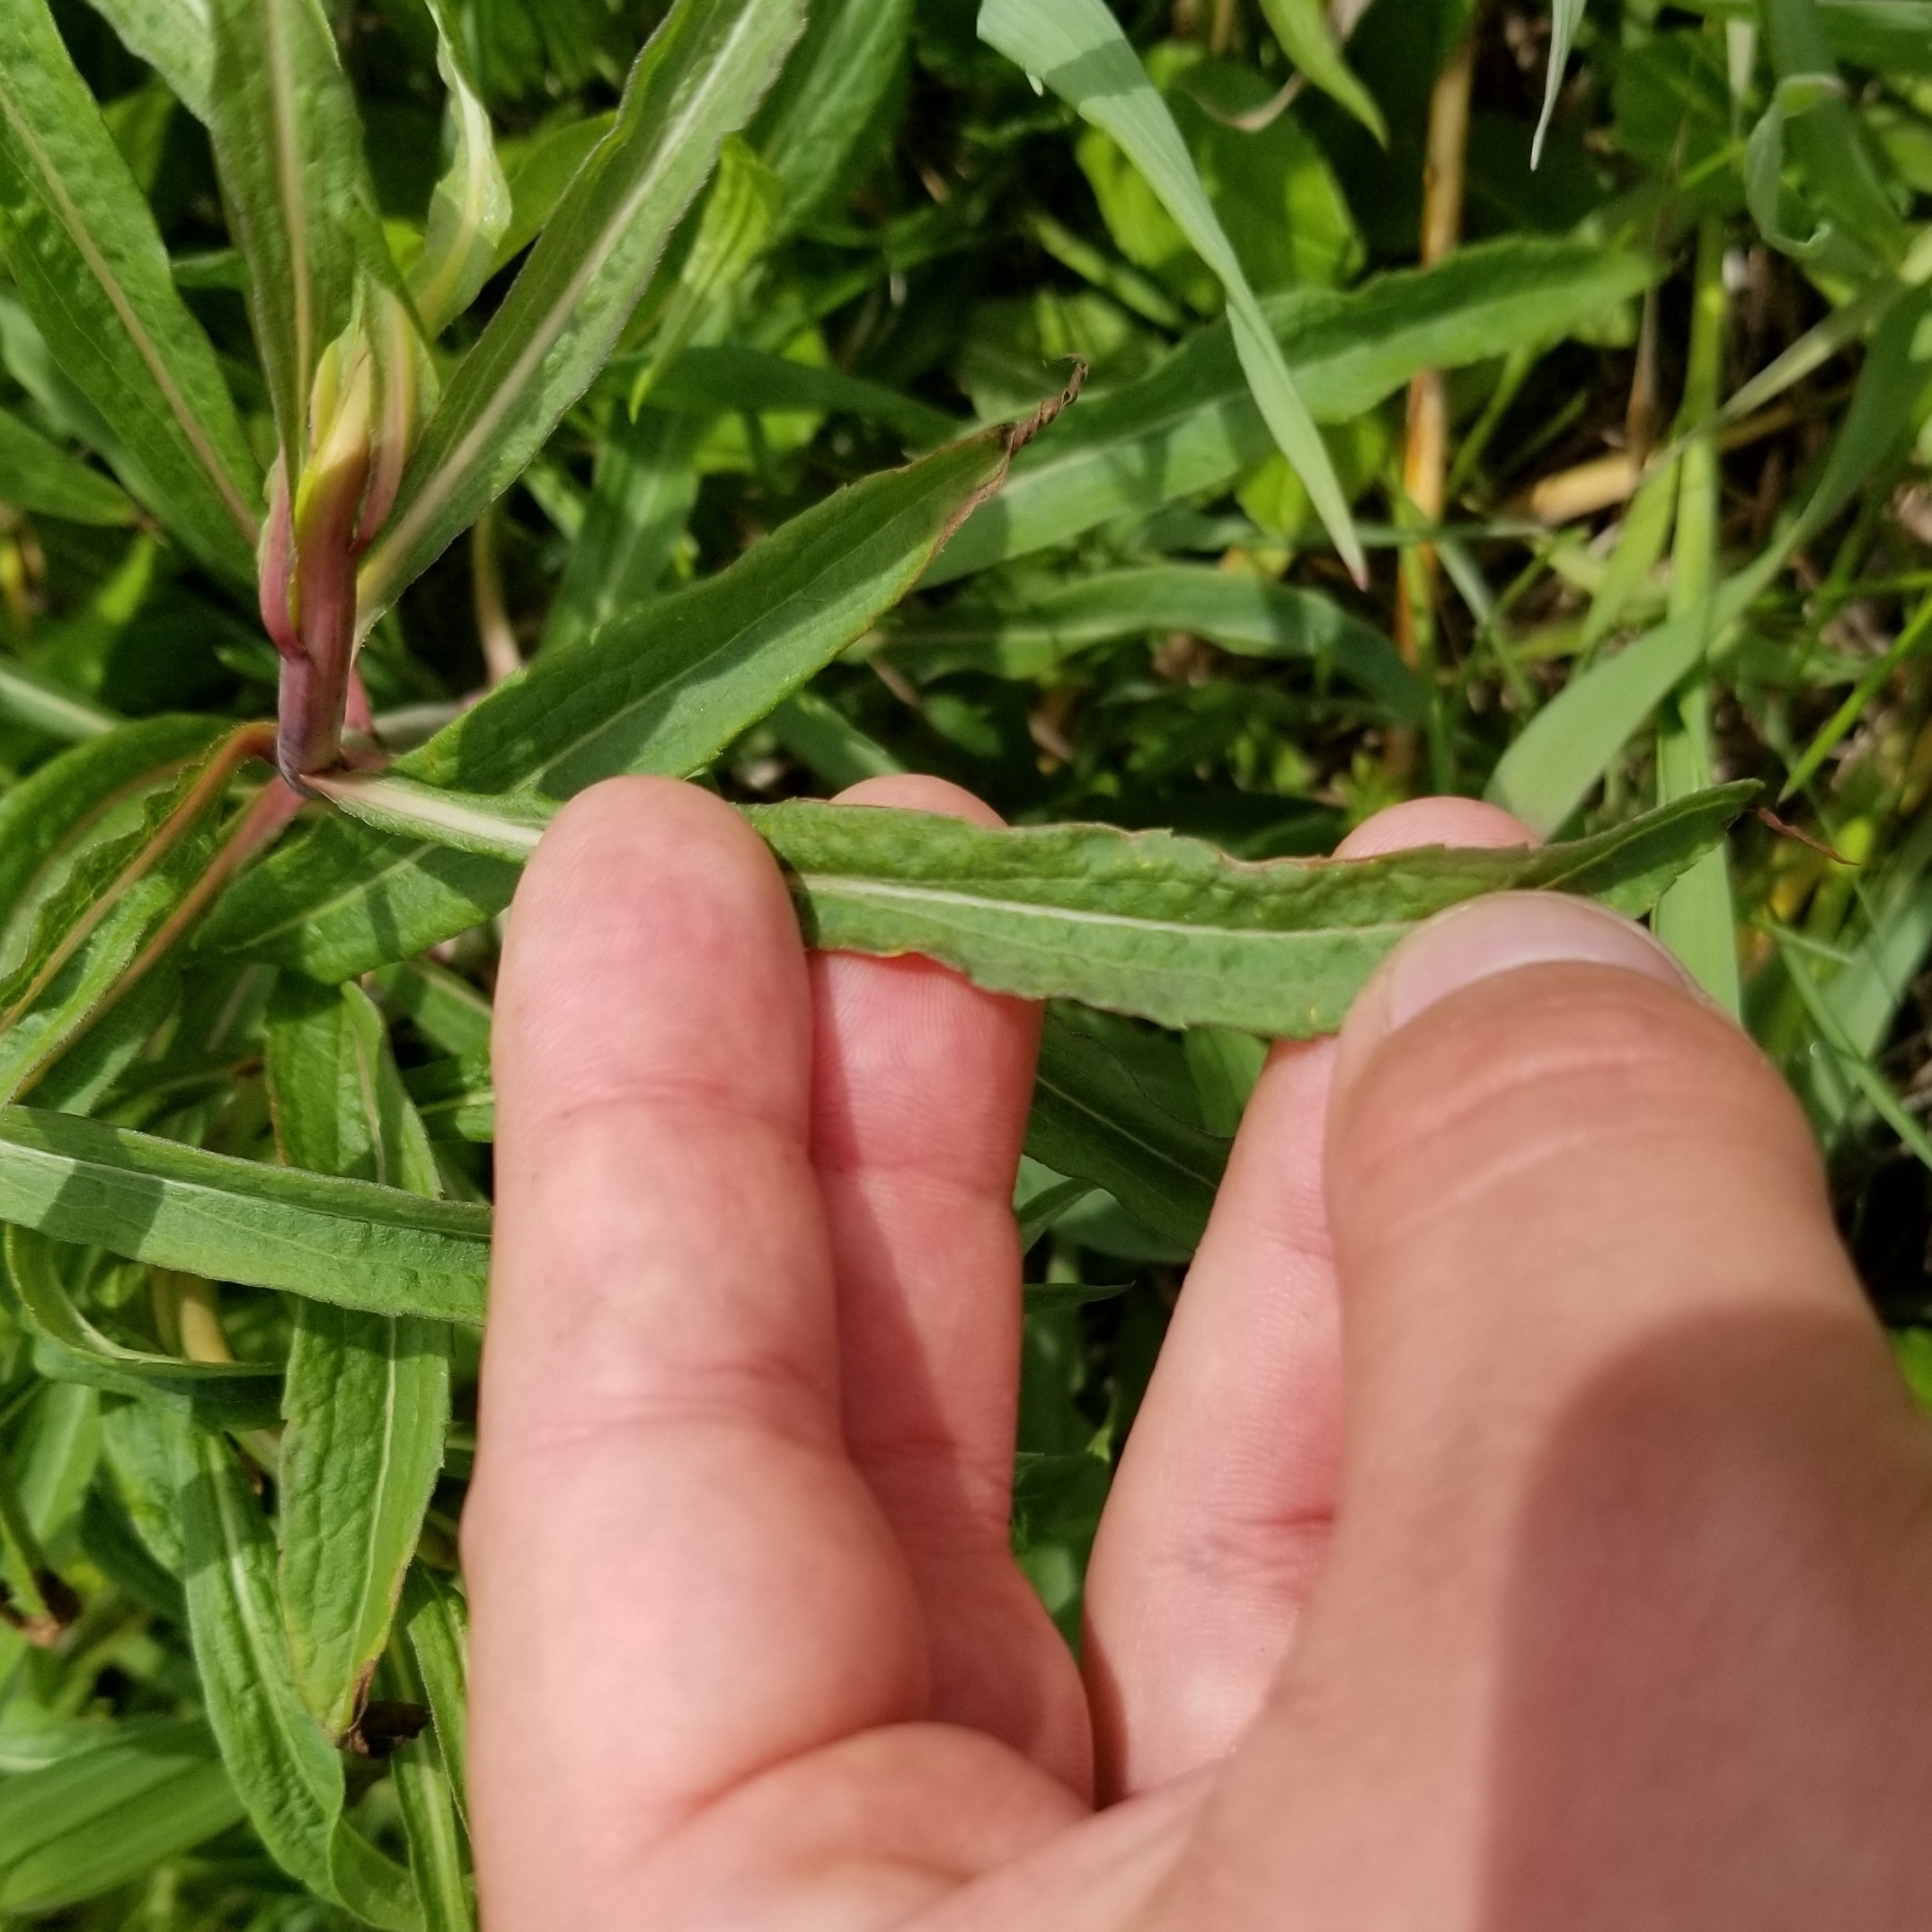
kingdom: Plantae
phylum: Tracheophyta
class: Magnoliopsida
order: Asterales
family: Asteraceae
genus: Solidago
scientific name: Solidago gigantea
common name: Giant goldenrod
